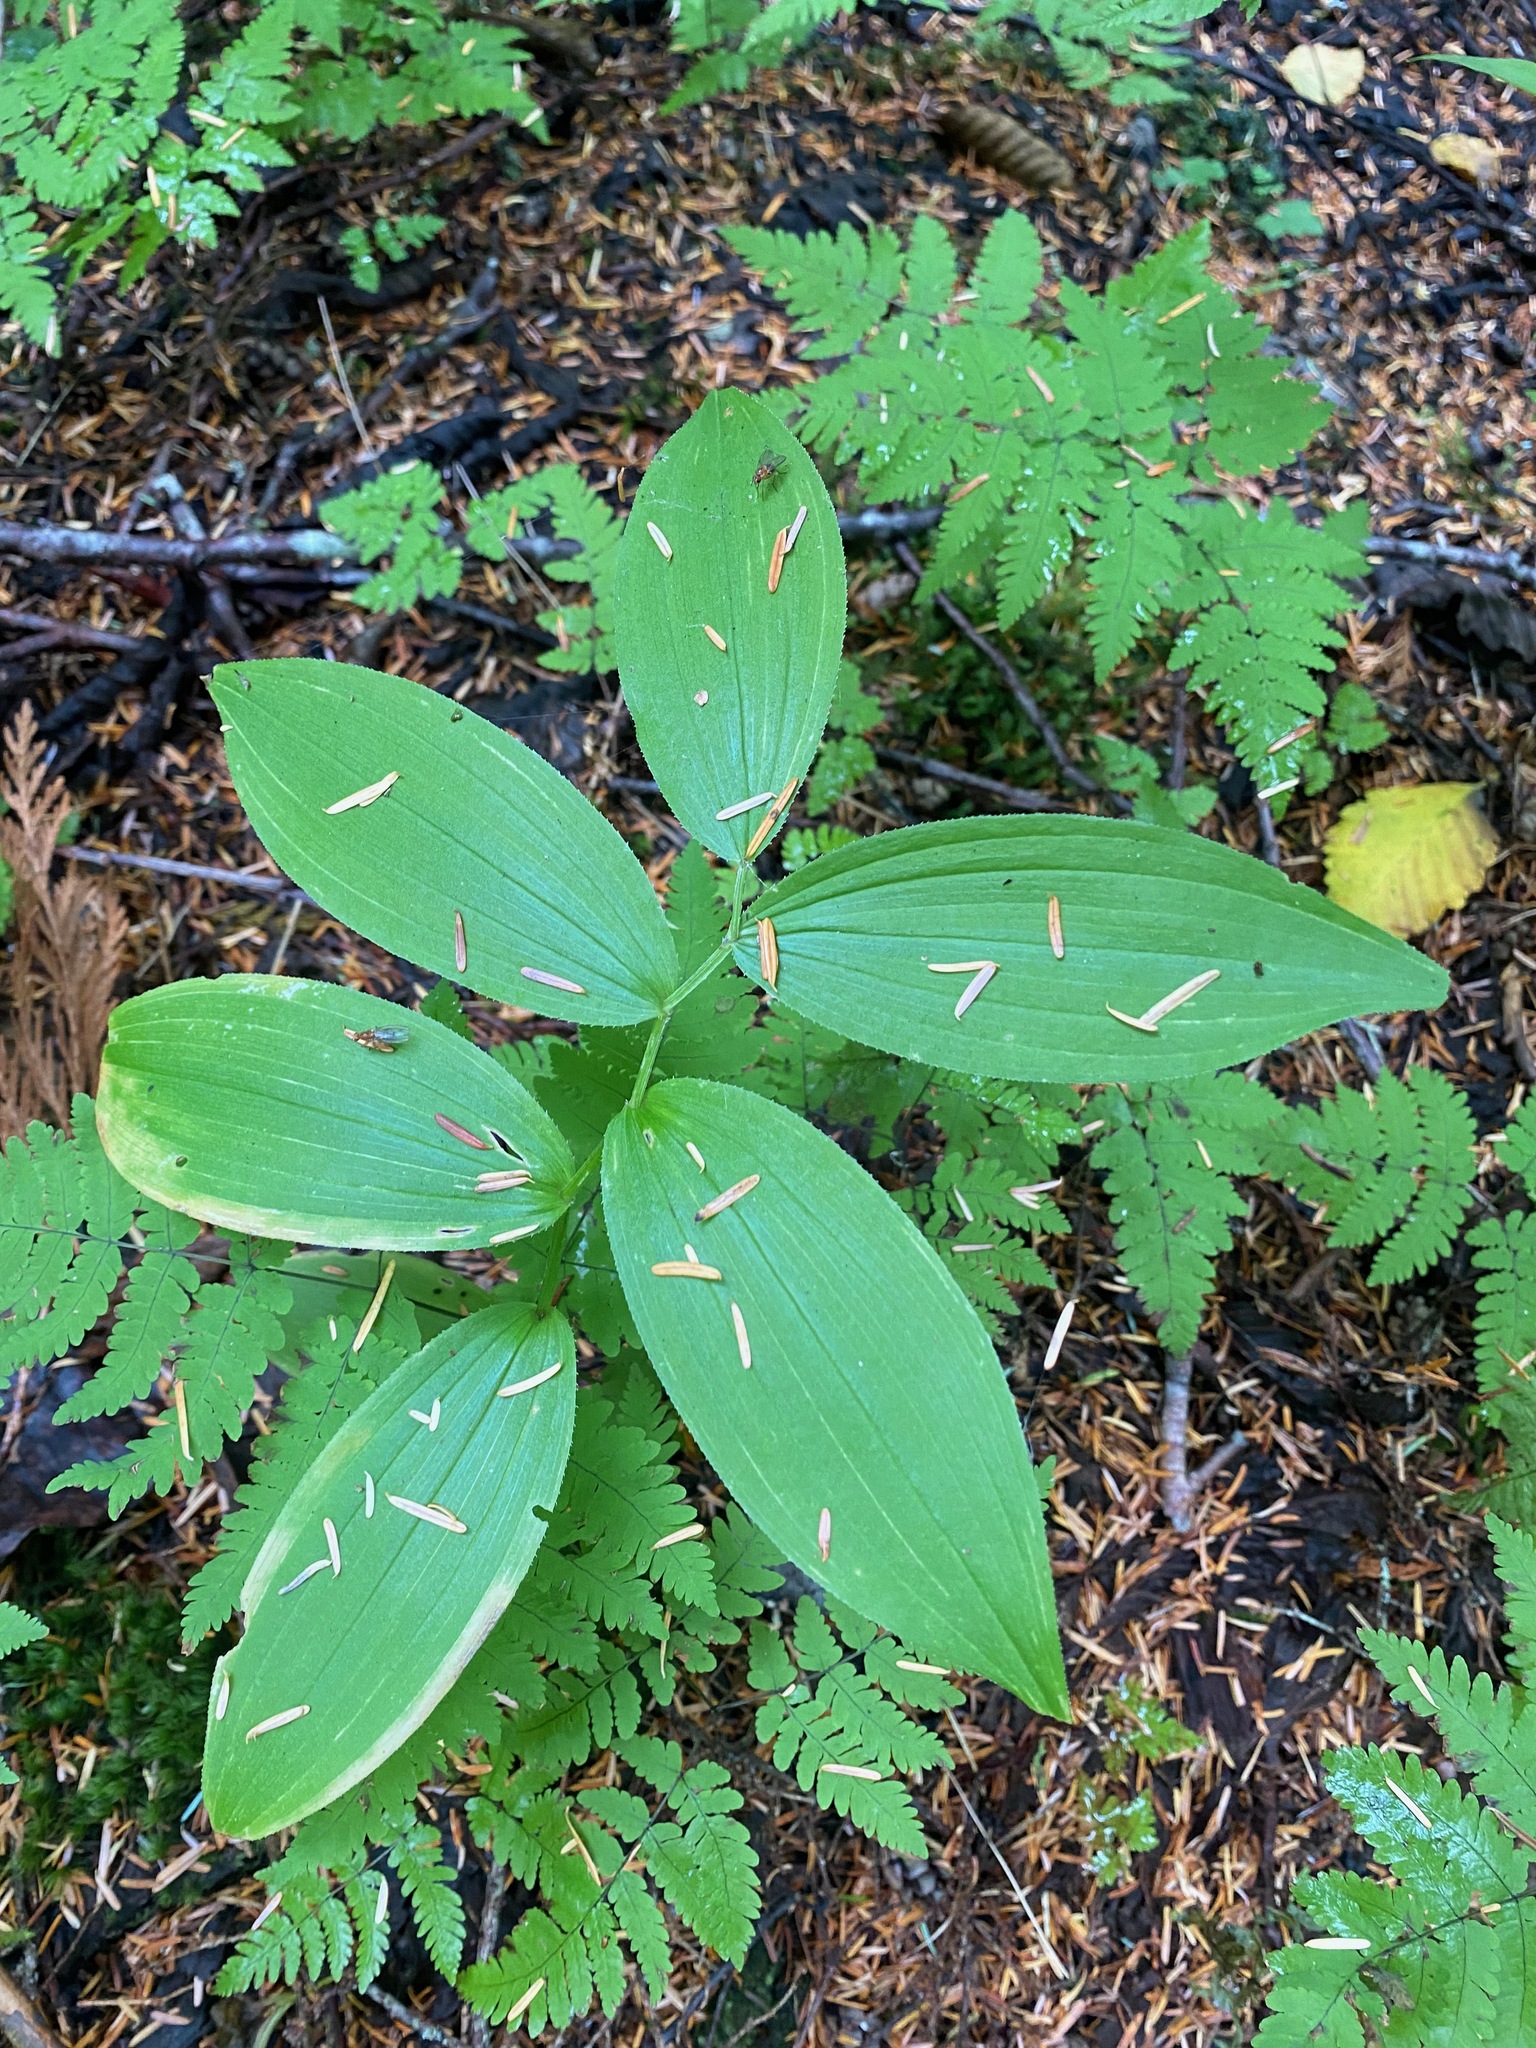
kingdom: Plantae
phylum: Tracheophyta
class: Liliopsida
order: Liliales
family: Liliaceae
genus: Streptopus
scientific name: Streptopus lanceolatus
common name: Rose mandarin
